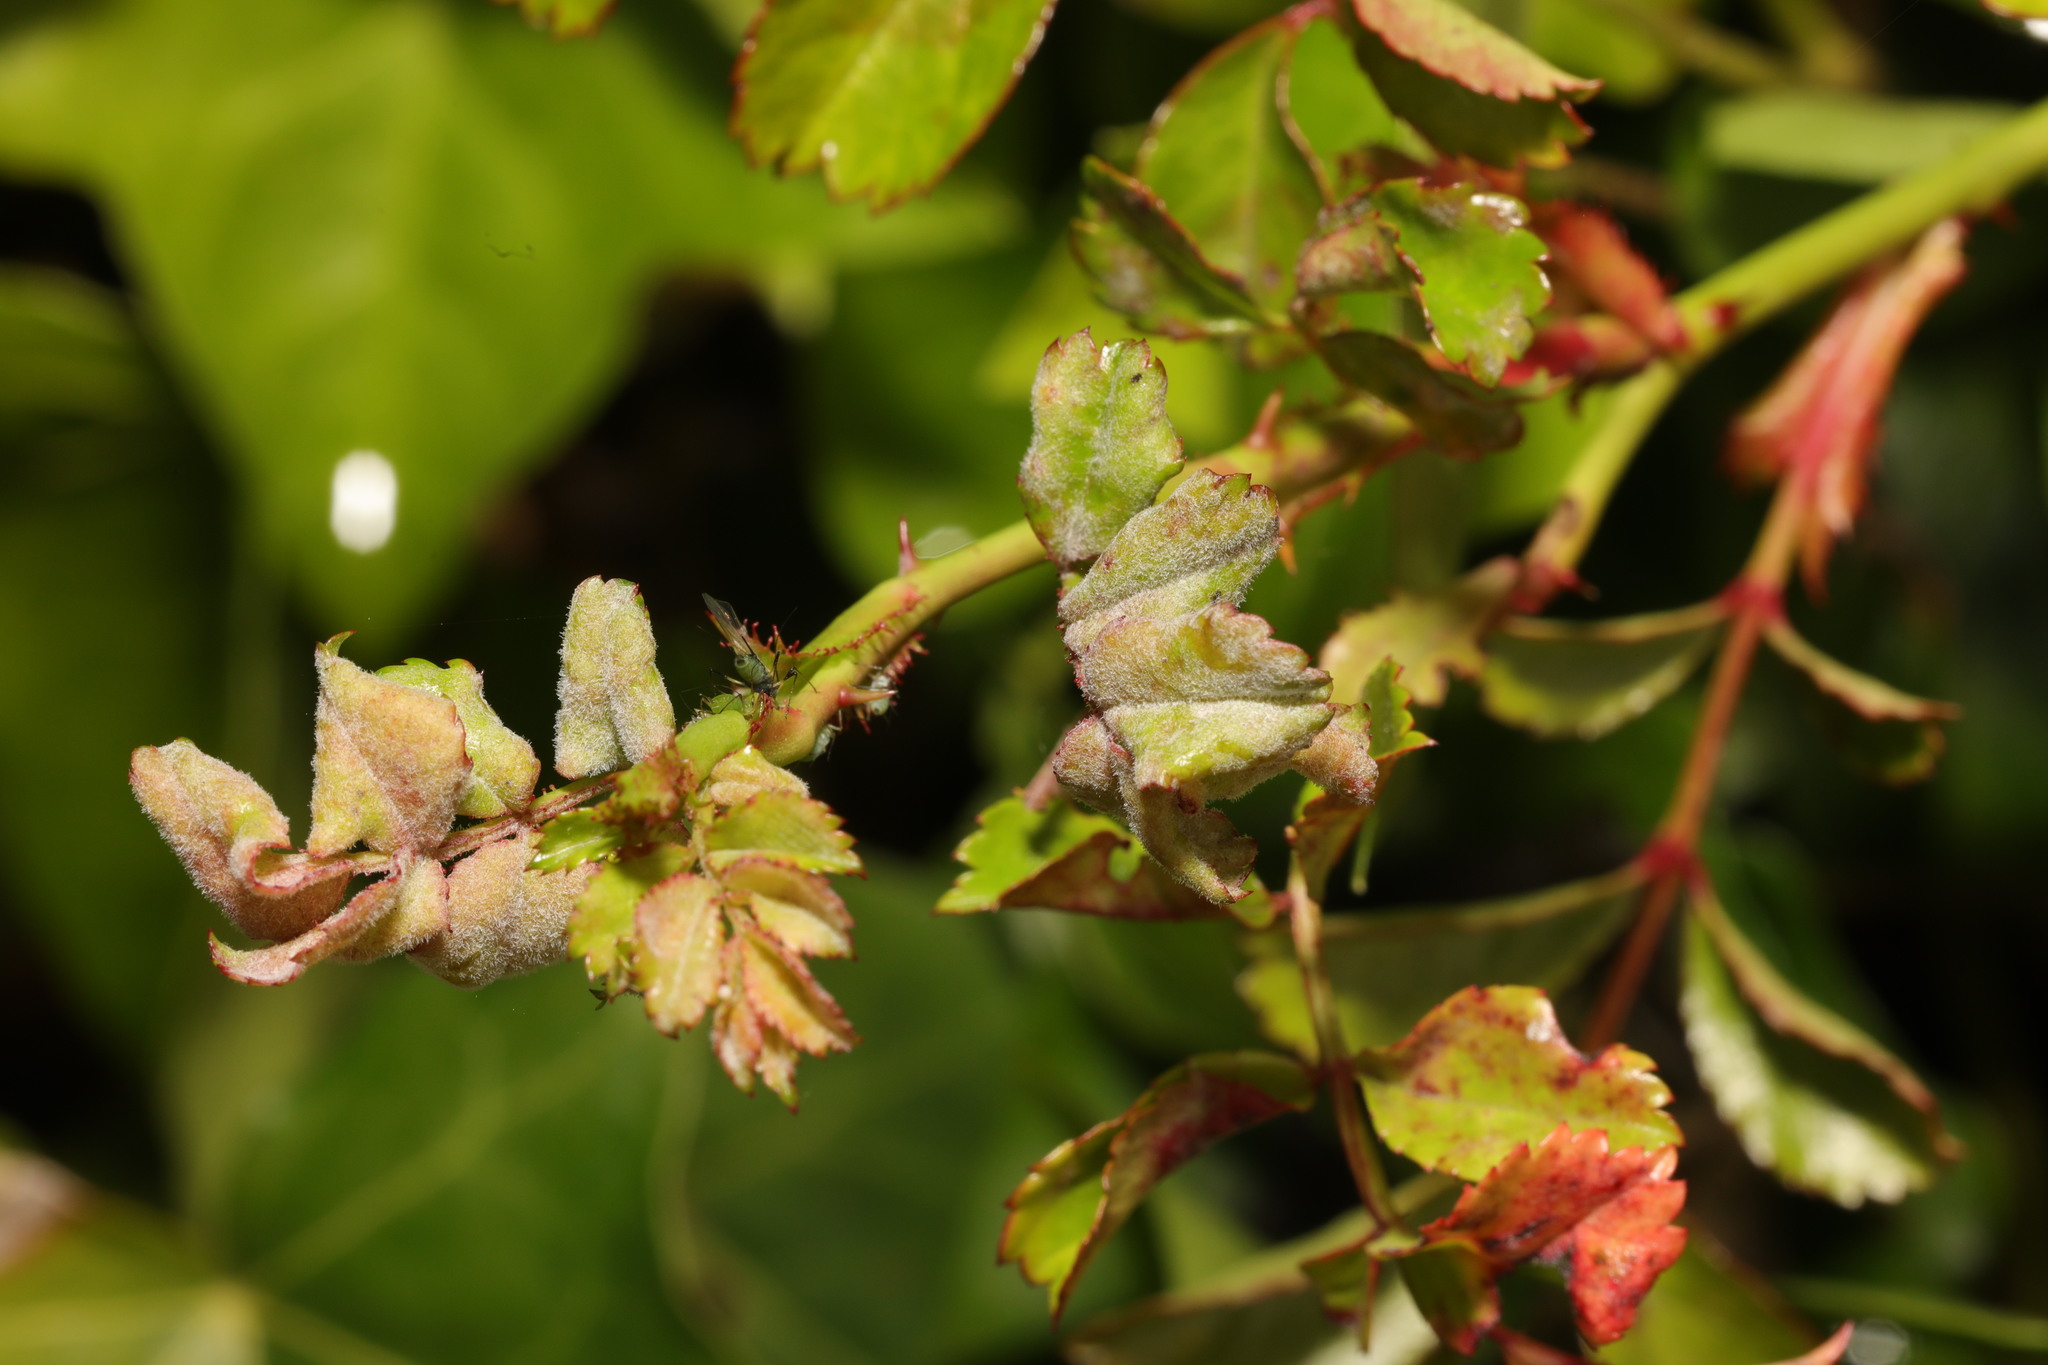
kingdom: Fungi
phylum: Ascomycota
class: Leotiomycetes
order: Helotiales
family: Erysiphaceae
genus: Podosphaera
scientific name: Podosphaera pannosa
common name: Rose mildew
